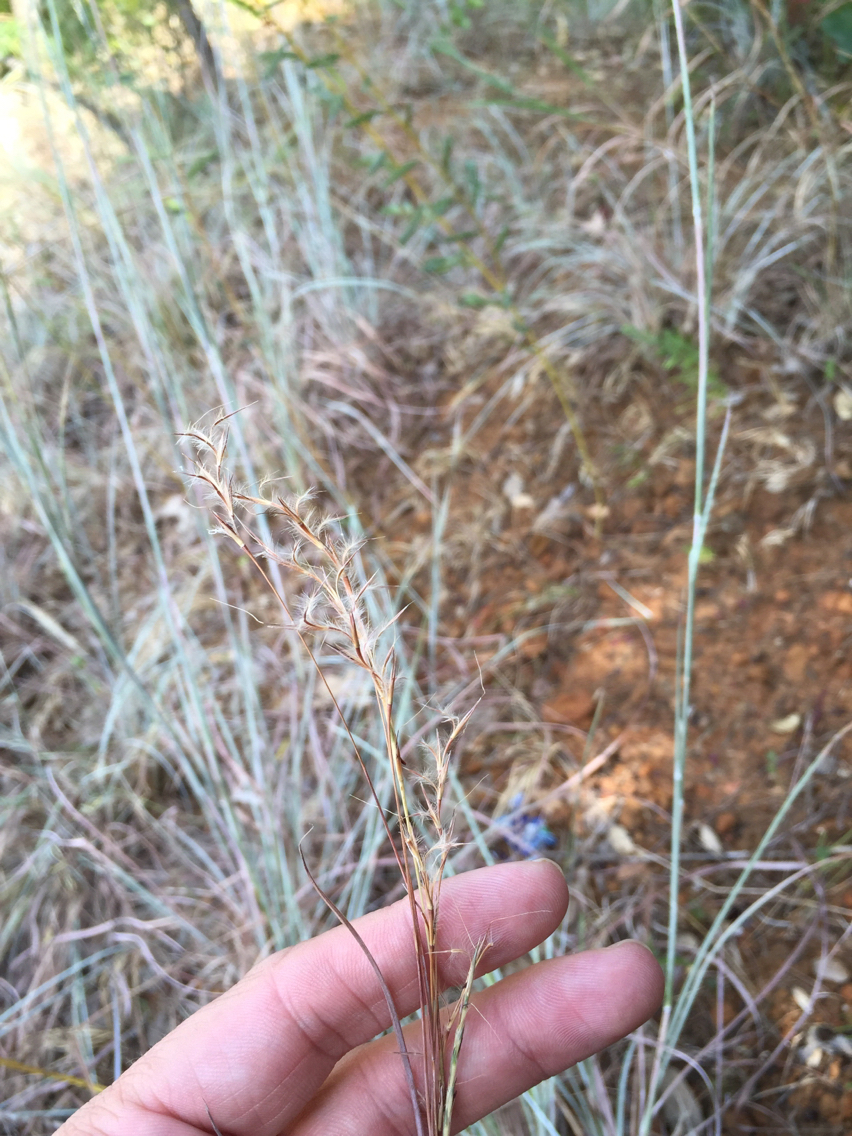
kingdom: Plantae
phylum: Tracheophyta
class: Liliopsida
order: Poales
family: Poaceae
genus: Schizachyrium
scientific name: Schizachyrium scoparium
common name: Little bluestem
